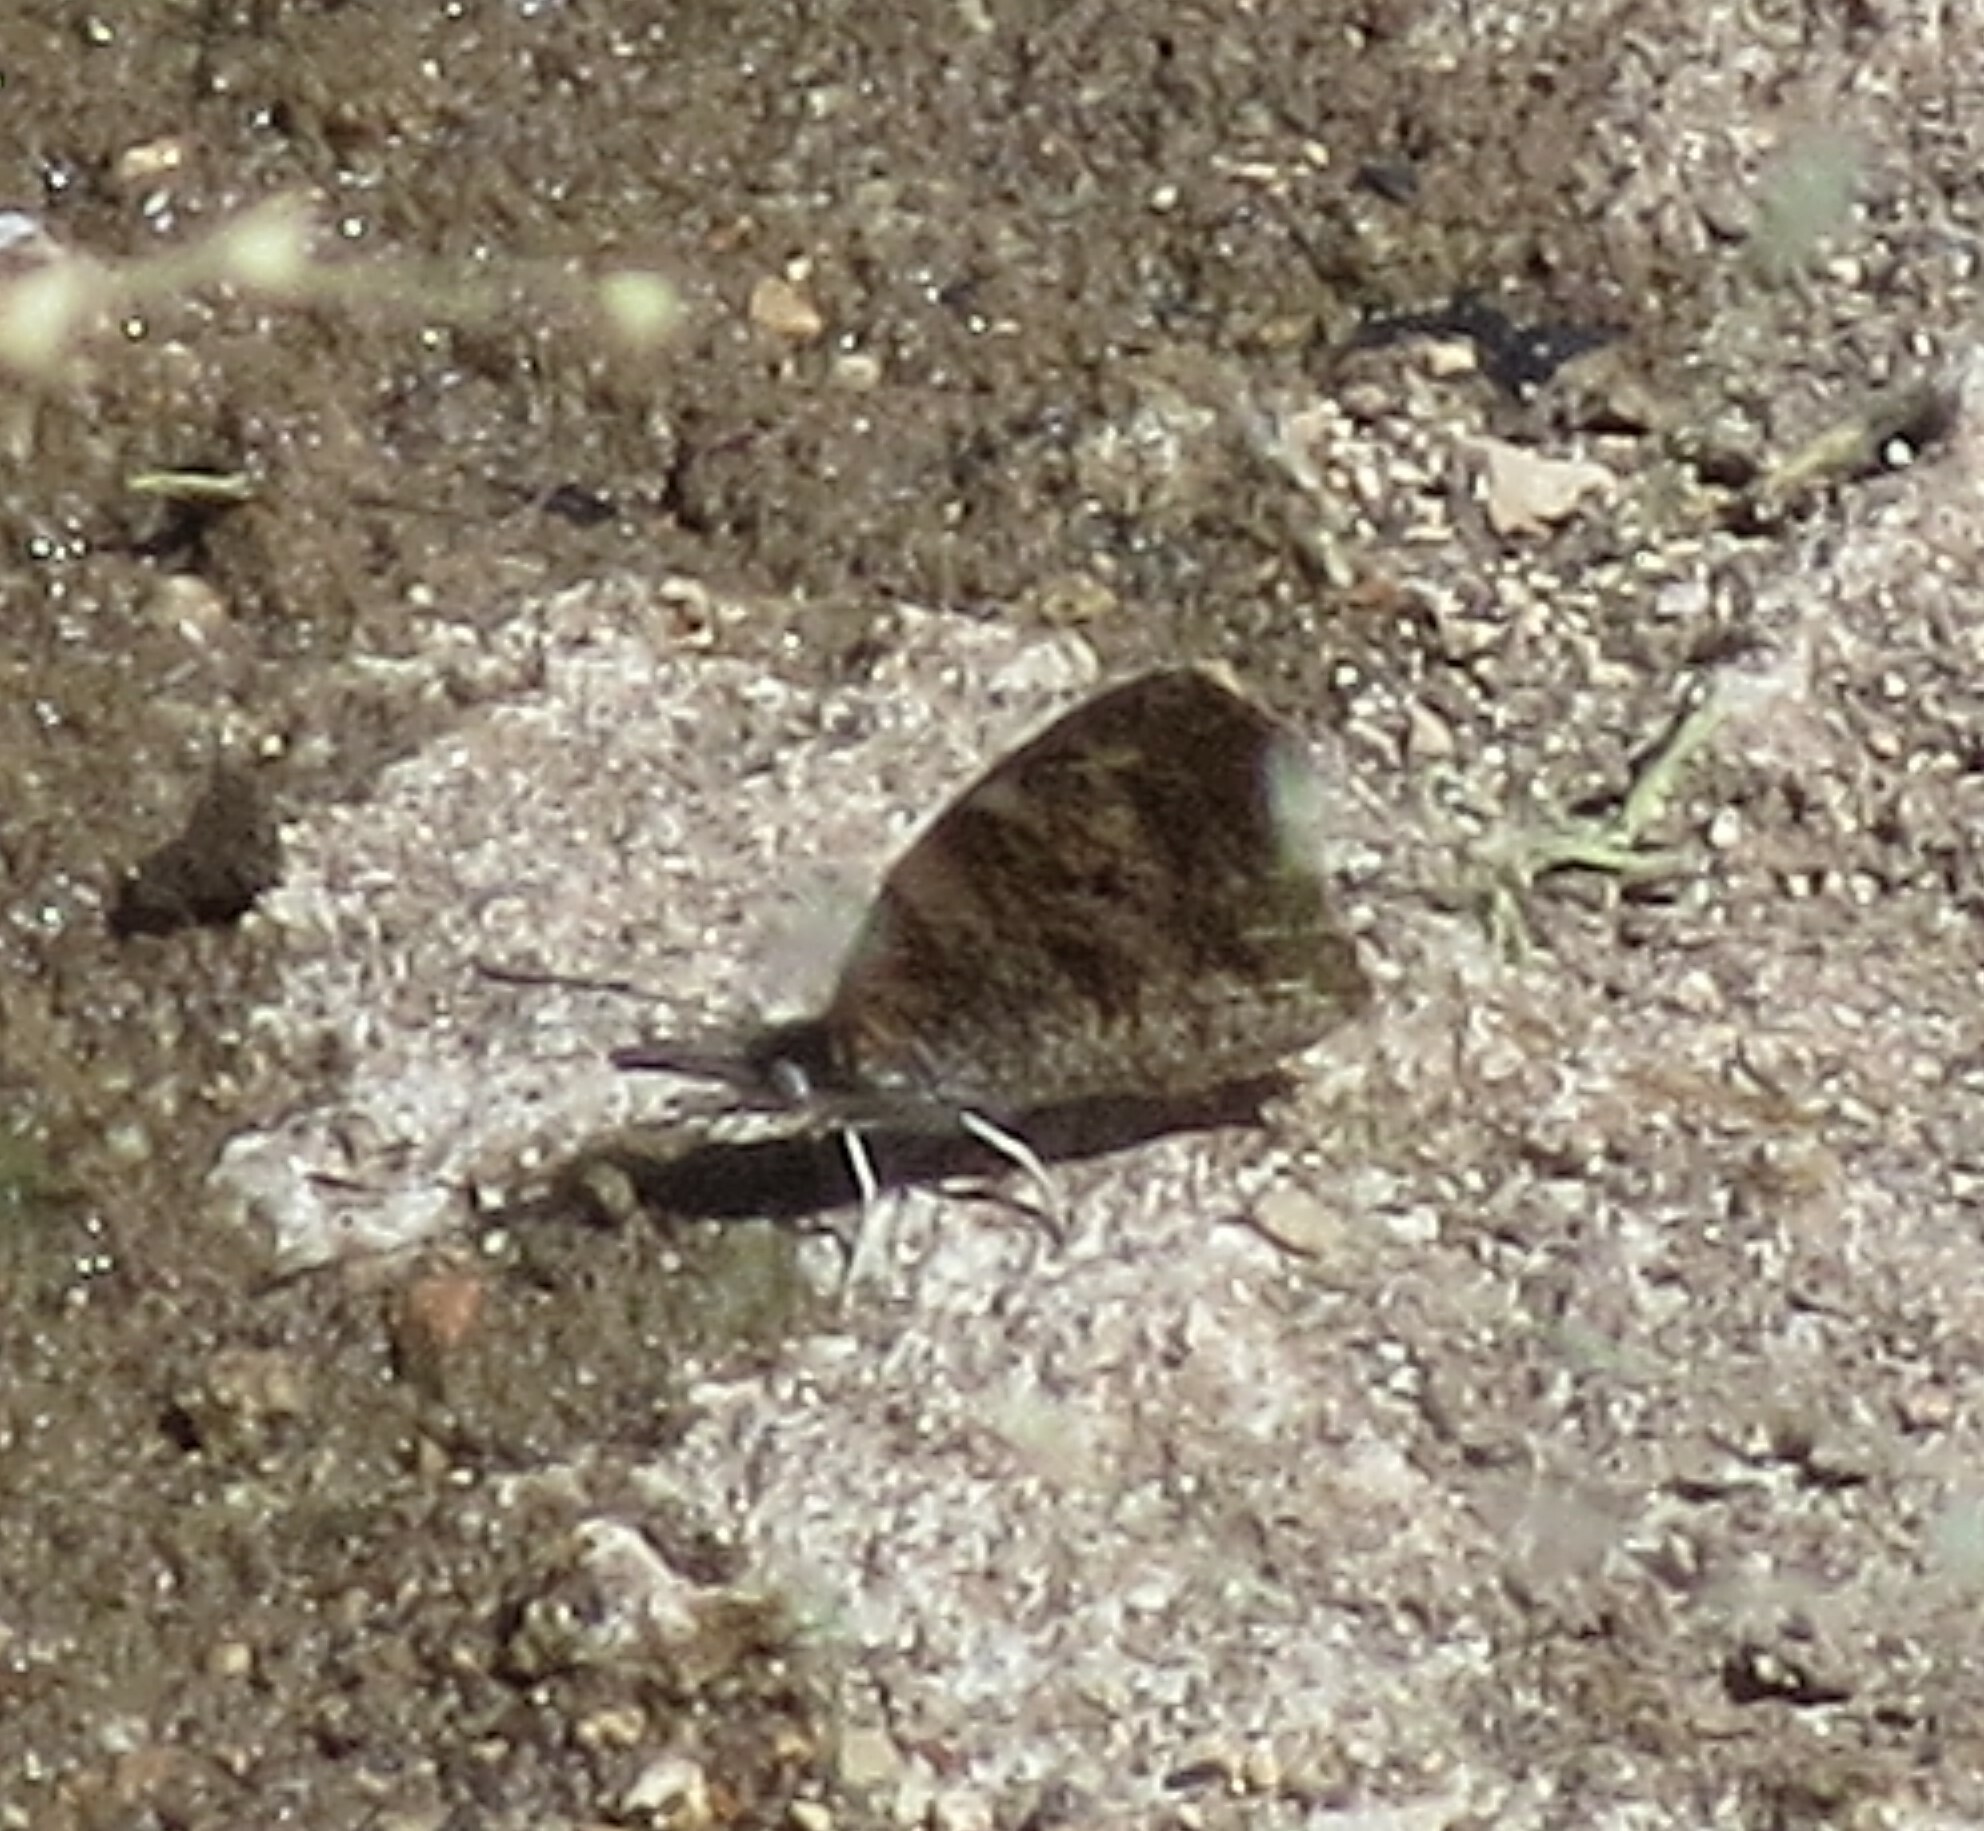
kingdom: Animalia
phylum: Arthropoda
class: Insecta
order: Lepidoptera
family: Nymphalidae
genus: Libytheana
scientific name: Libytheana carinenta
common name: American snout
